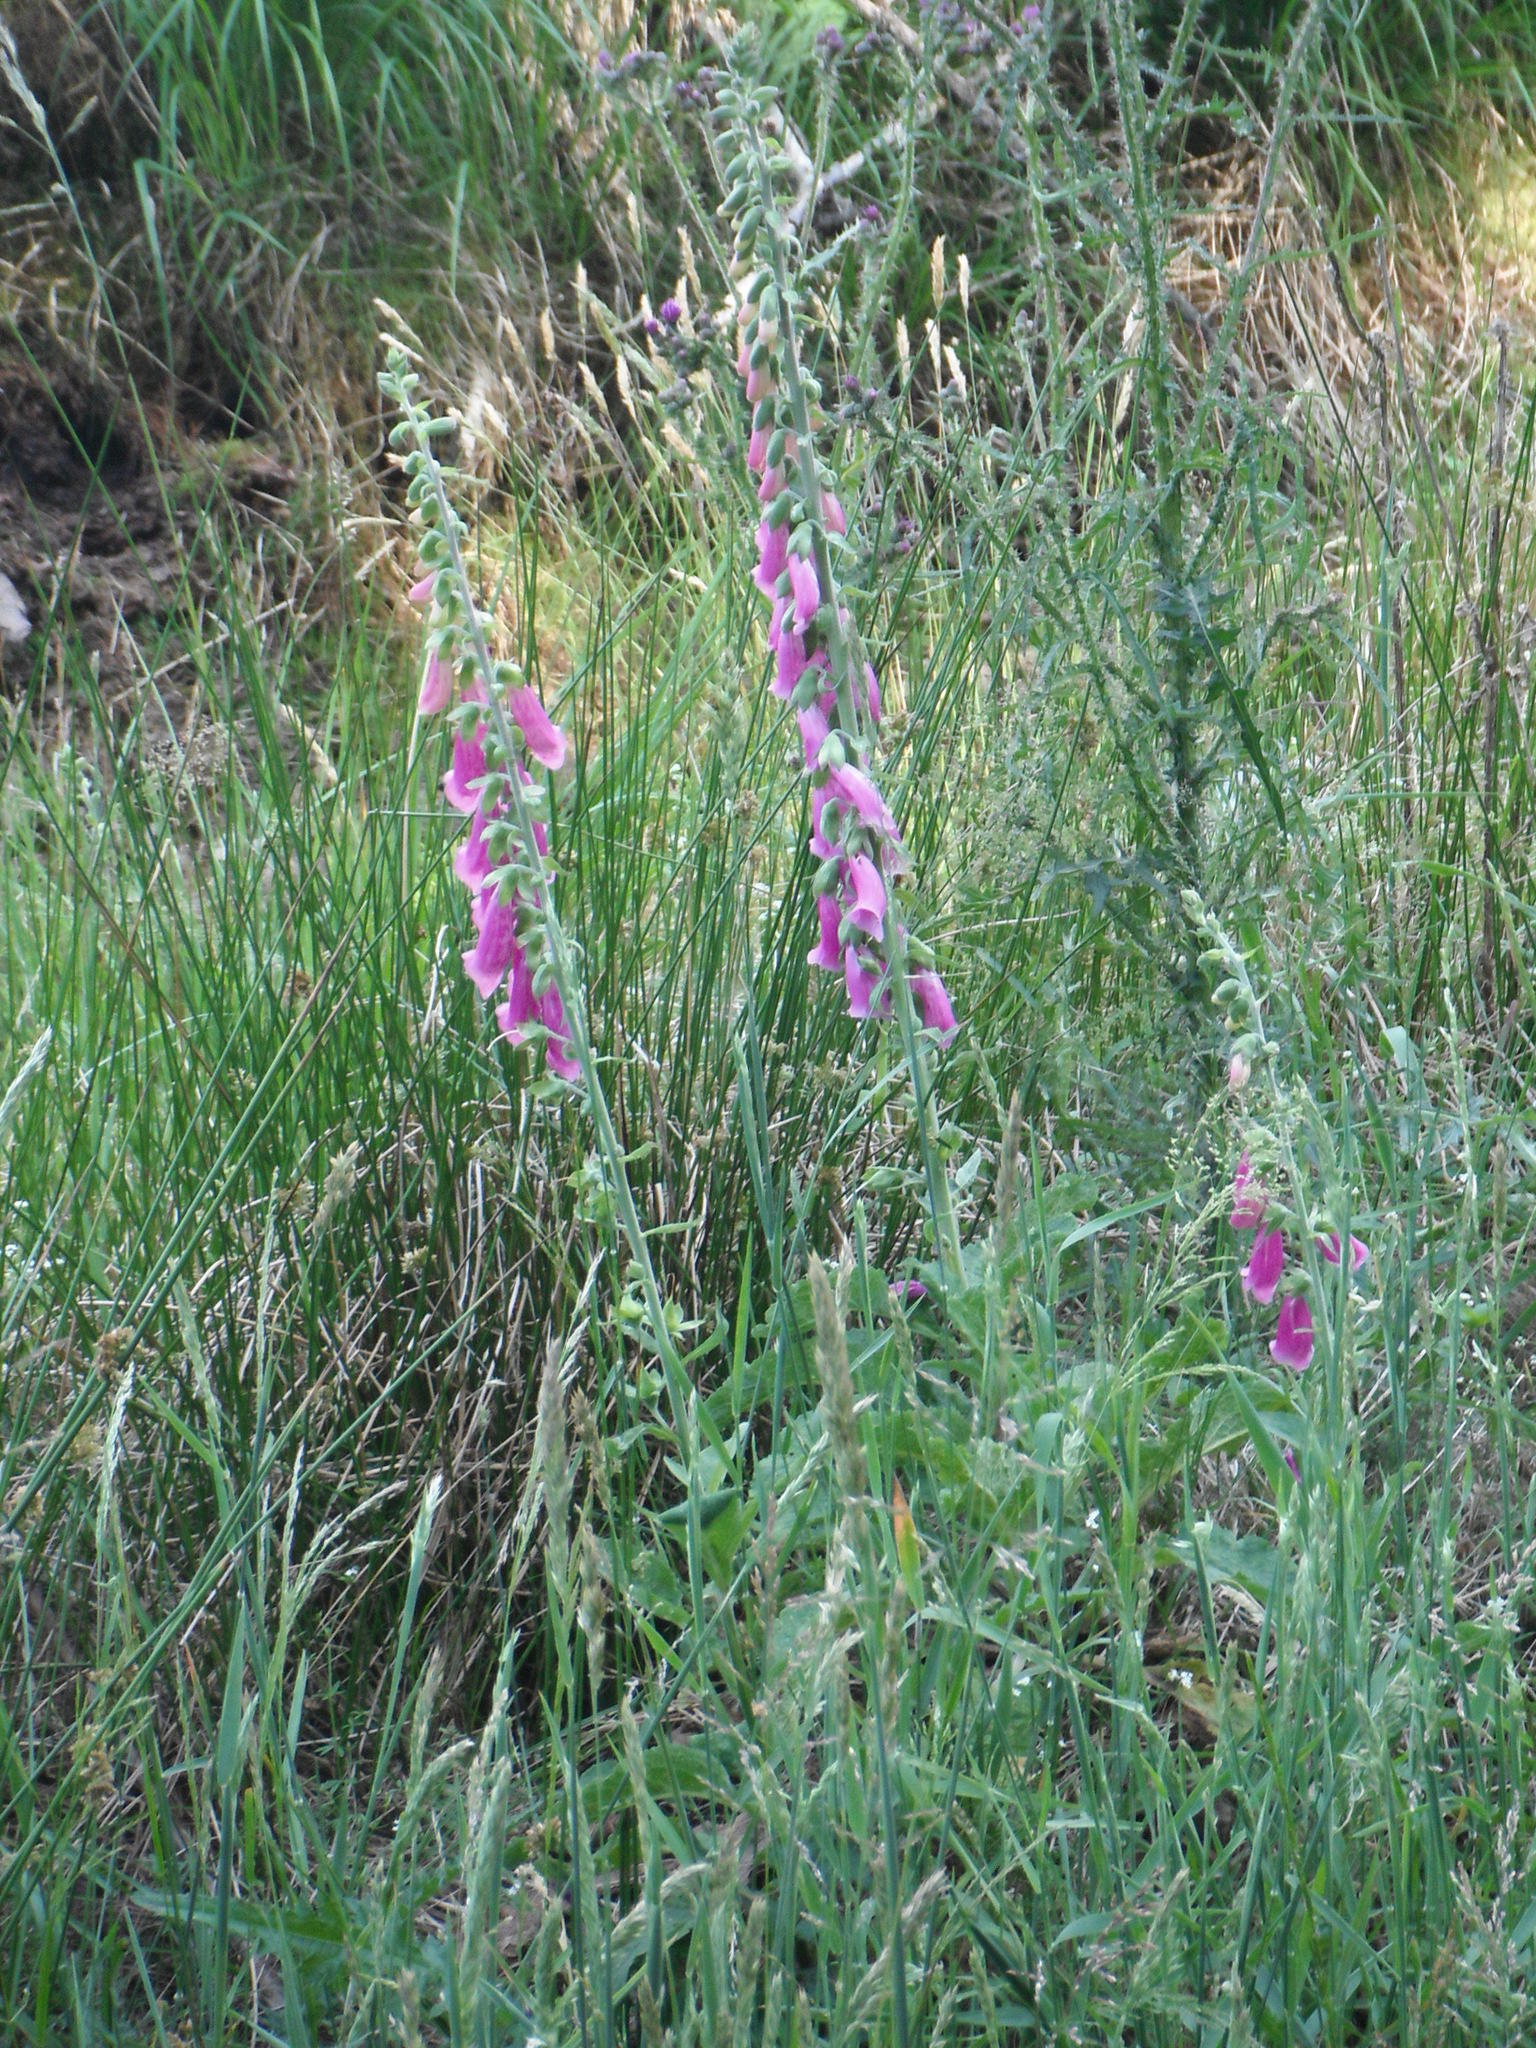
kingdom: Plantae
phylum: Tracheophyta
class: Magnoliopsida
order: Lamiales
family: Plantaginaceae
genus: Digitalis
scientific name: Digitalis purpurea
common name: Foxglove
